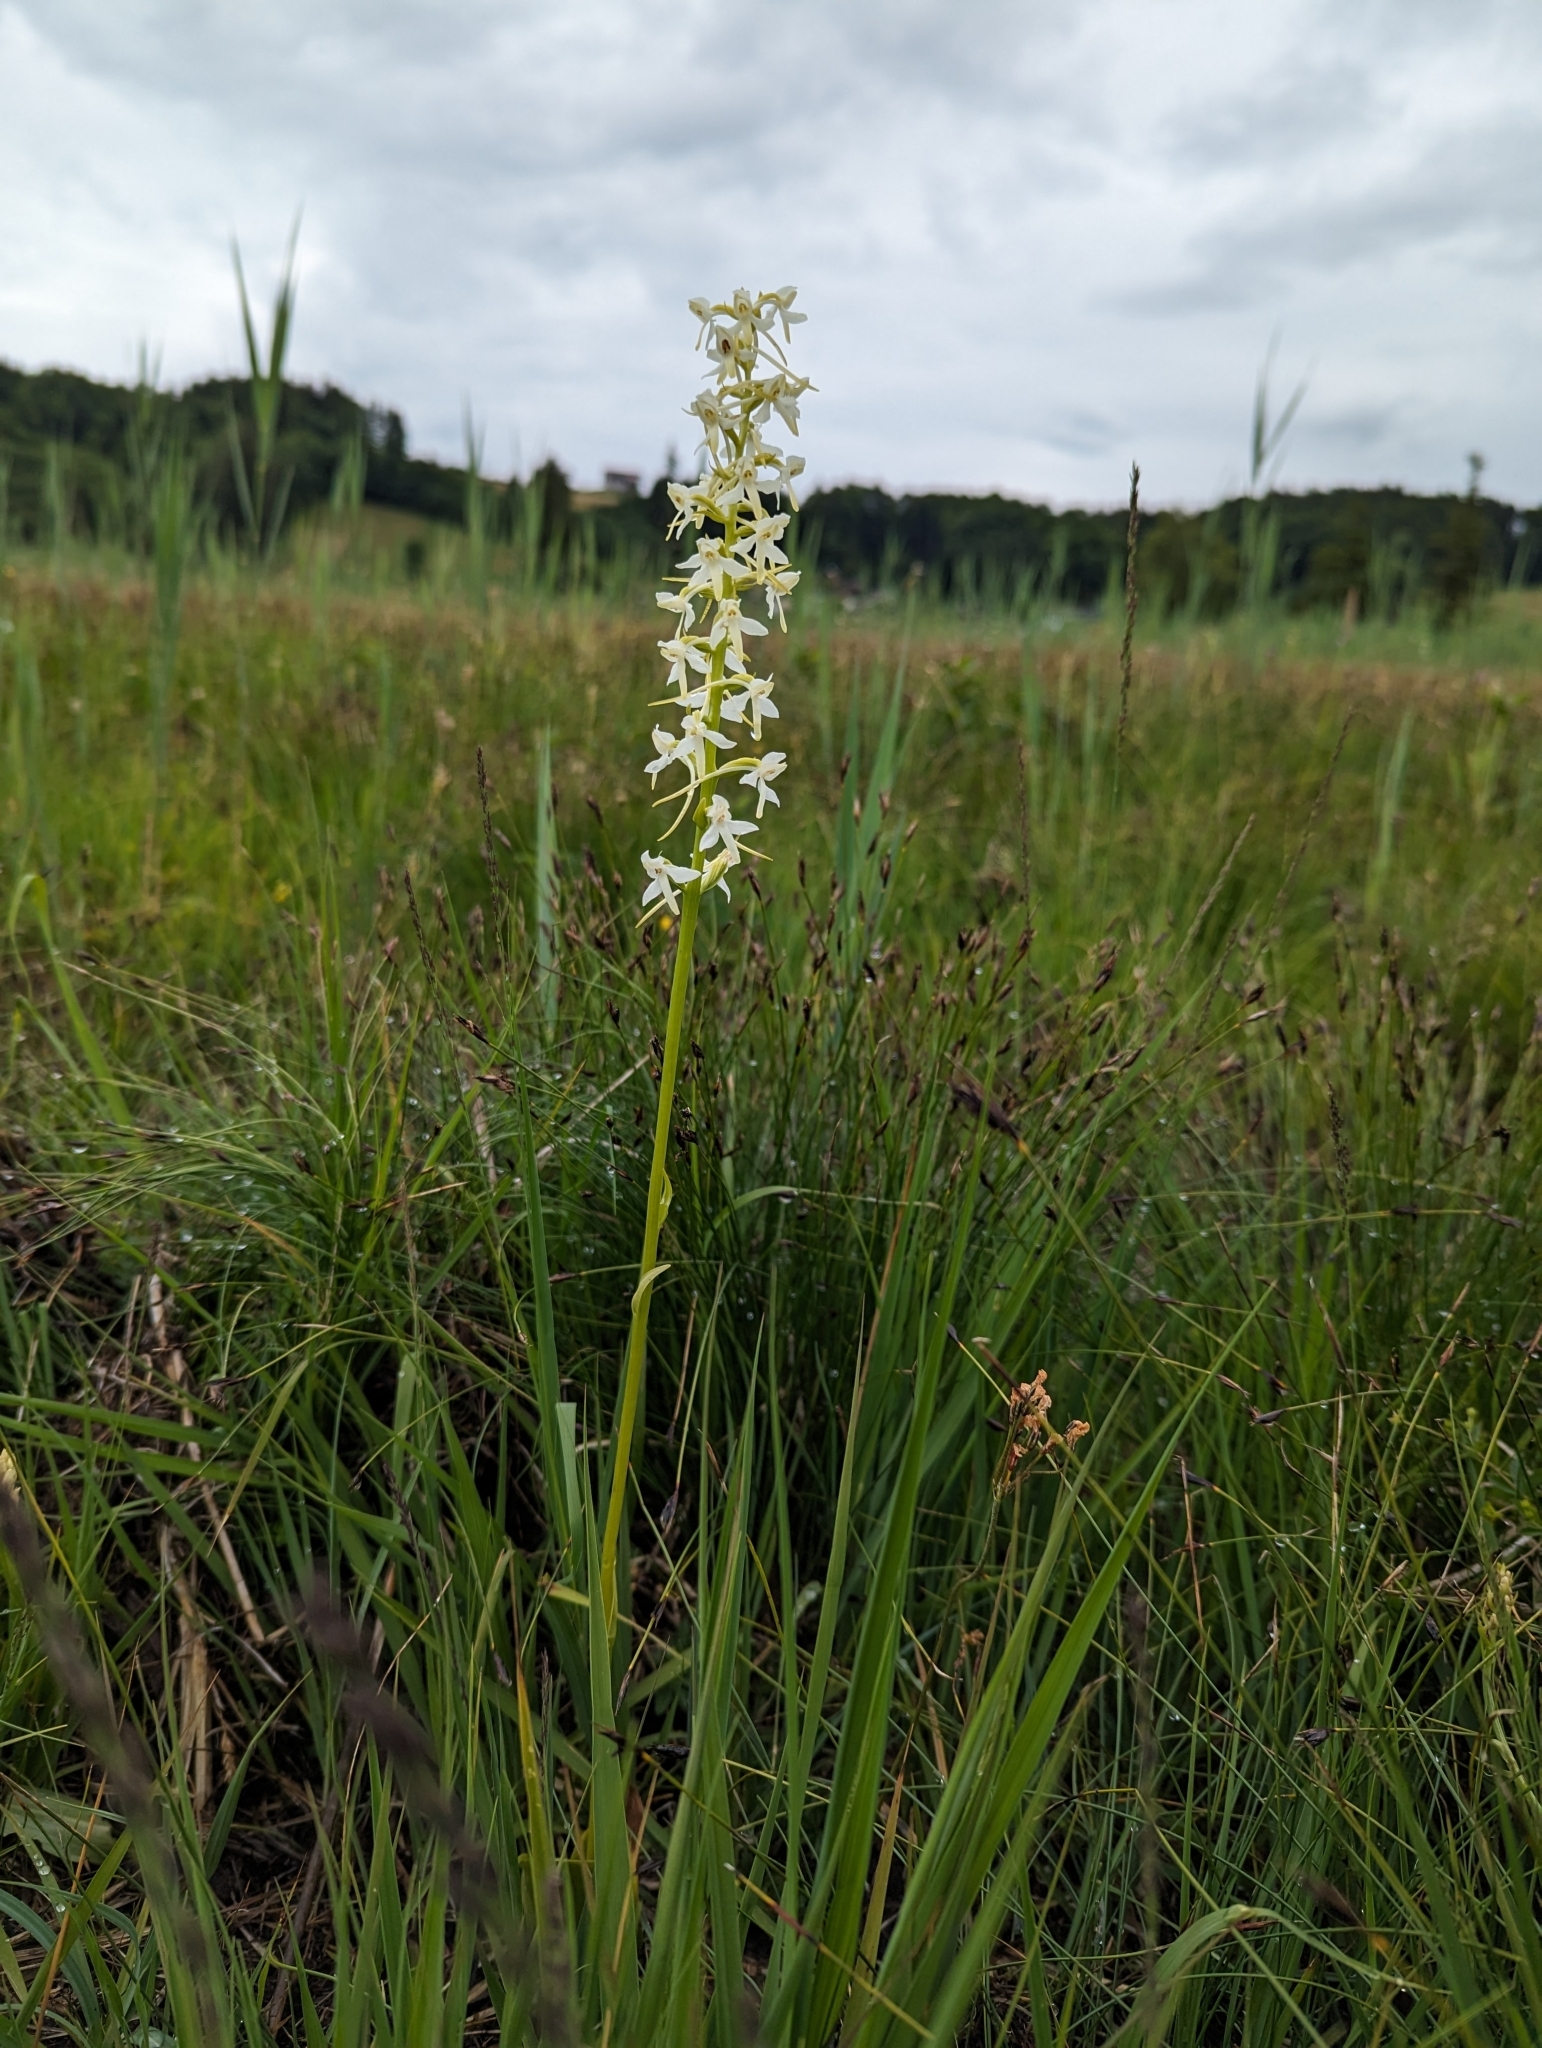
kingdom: Plantae
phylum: Tracheophyta
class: Liliopsida
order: Asparagales
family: Orchidaceae
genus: Platanthera
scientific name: Platanthera bifolia
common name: Lesser butterfly-orchid
